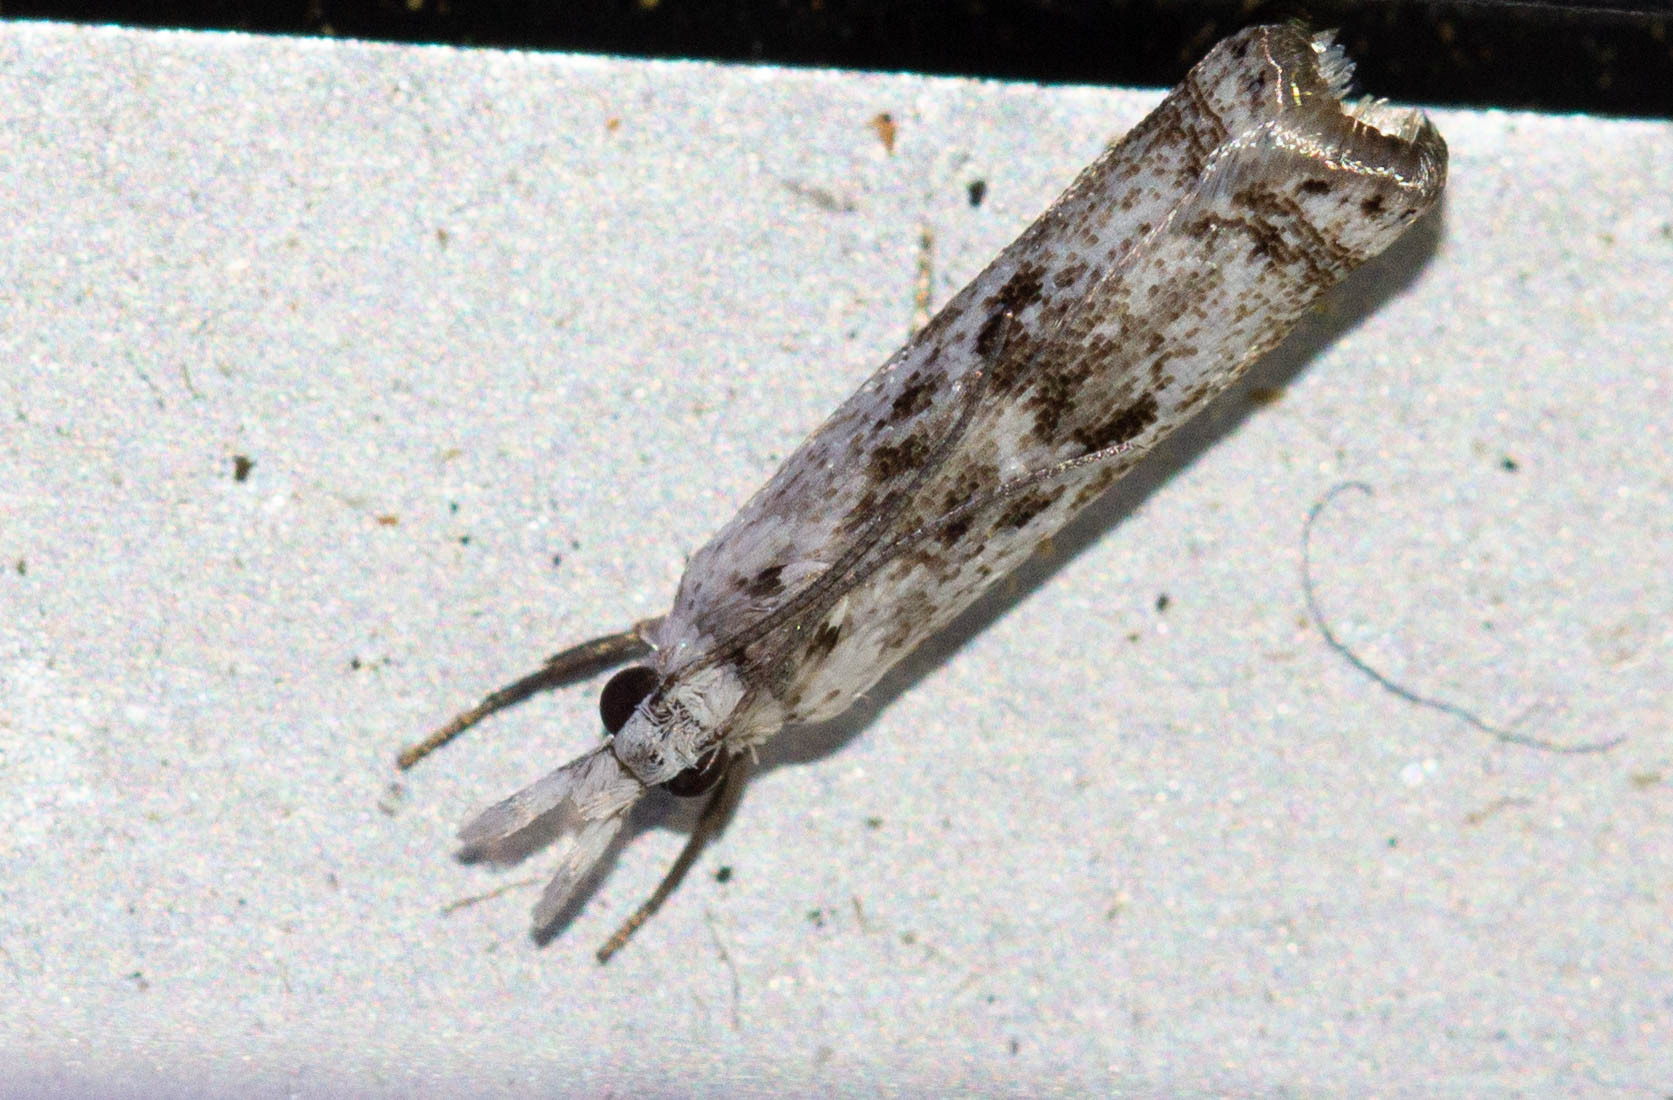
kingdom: Animalia
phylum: Arthropoda
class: Insecta
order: Lepidoptera
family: Crambidae
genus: Microcrambus
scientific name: Microcrambus elegans
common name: Elegant grass-veneer
